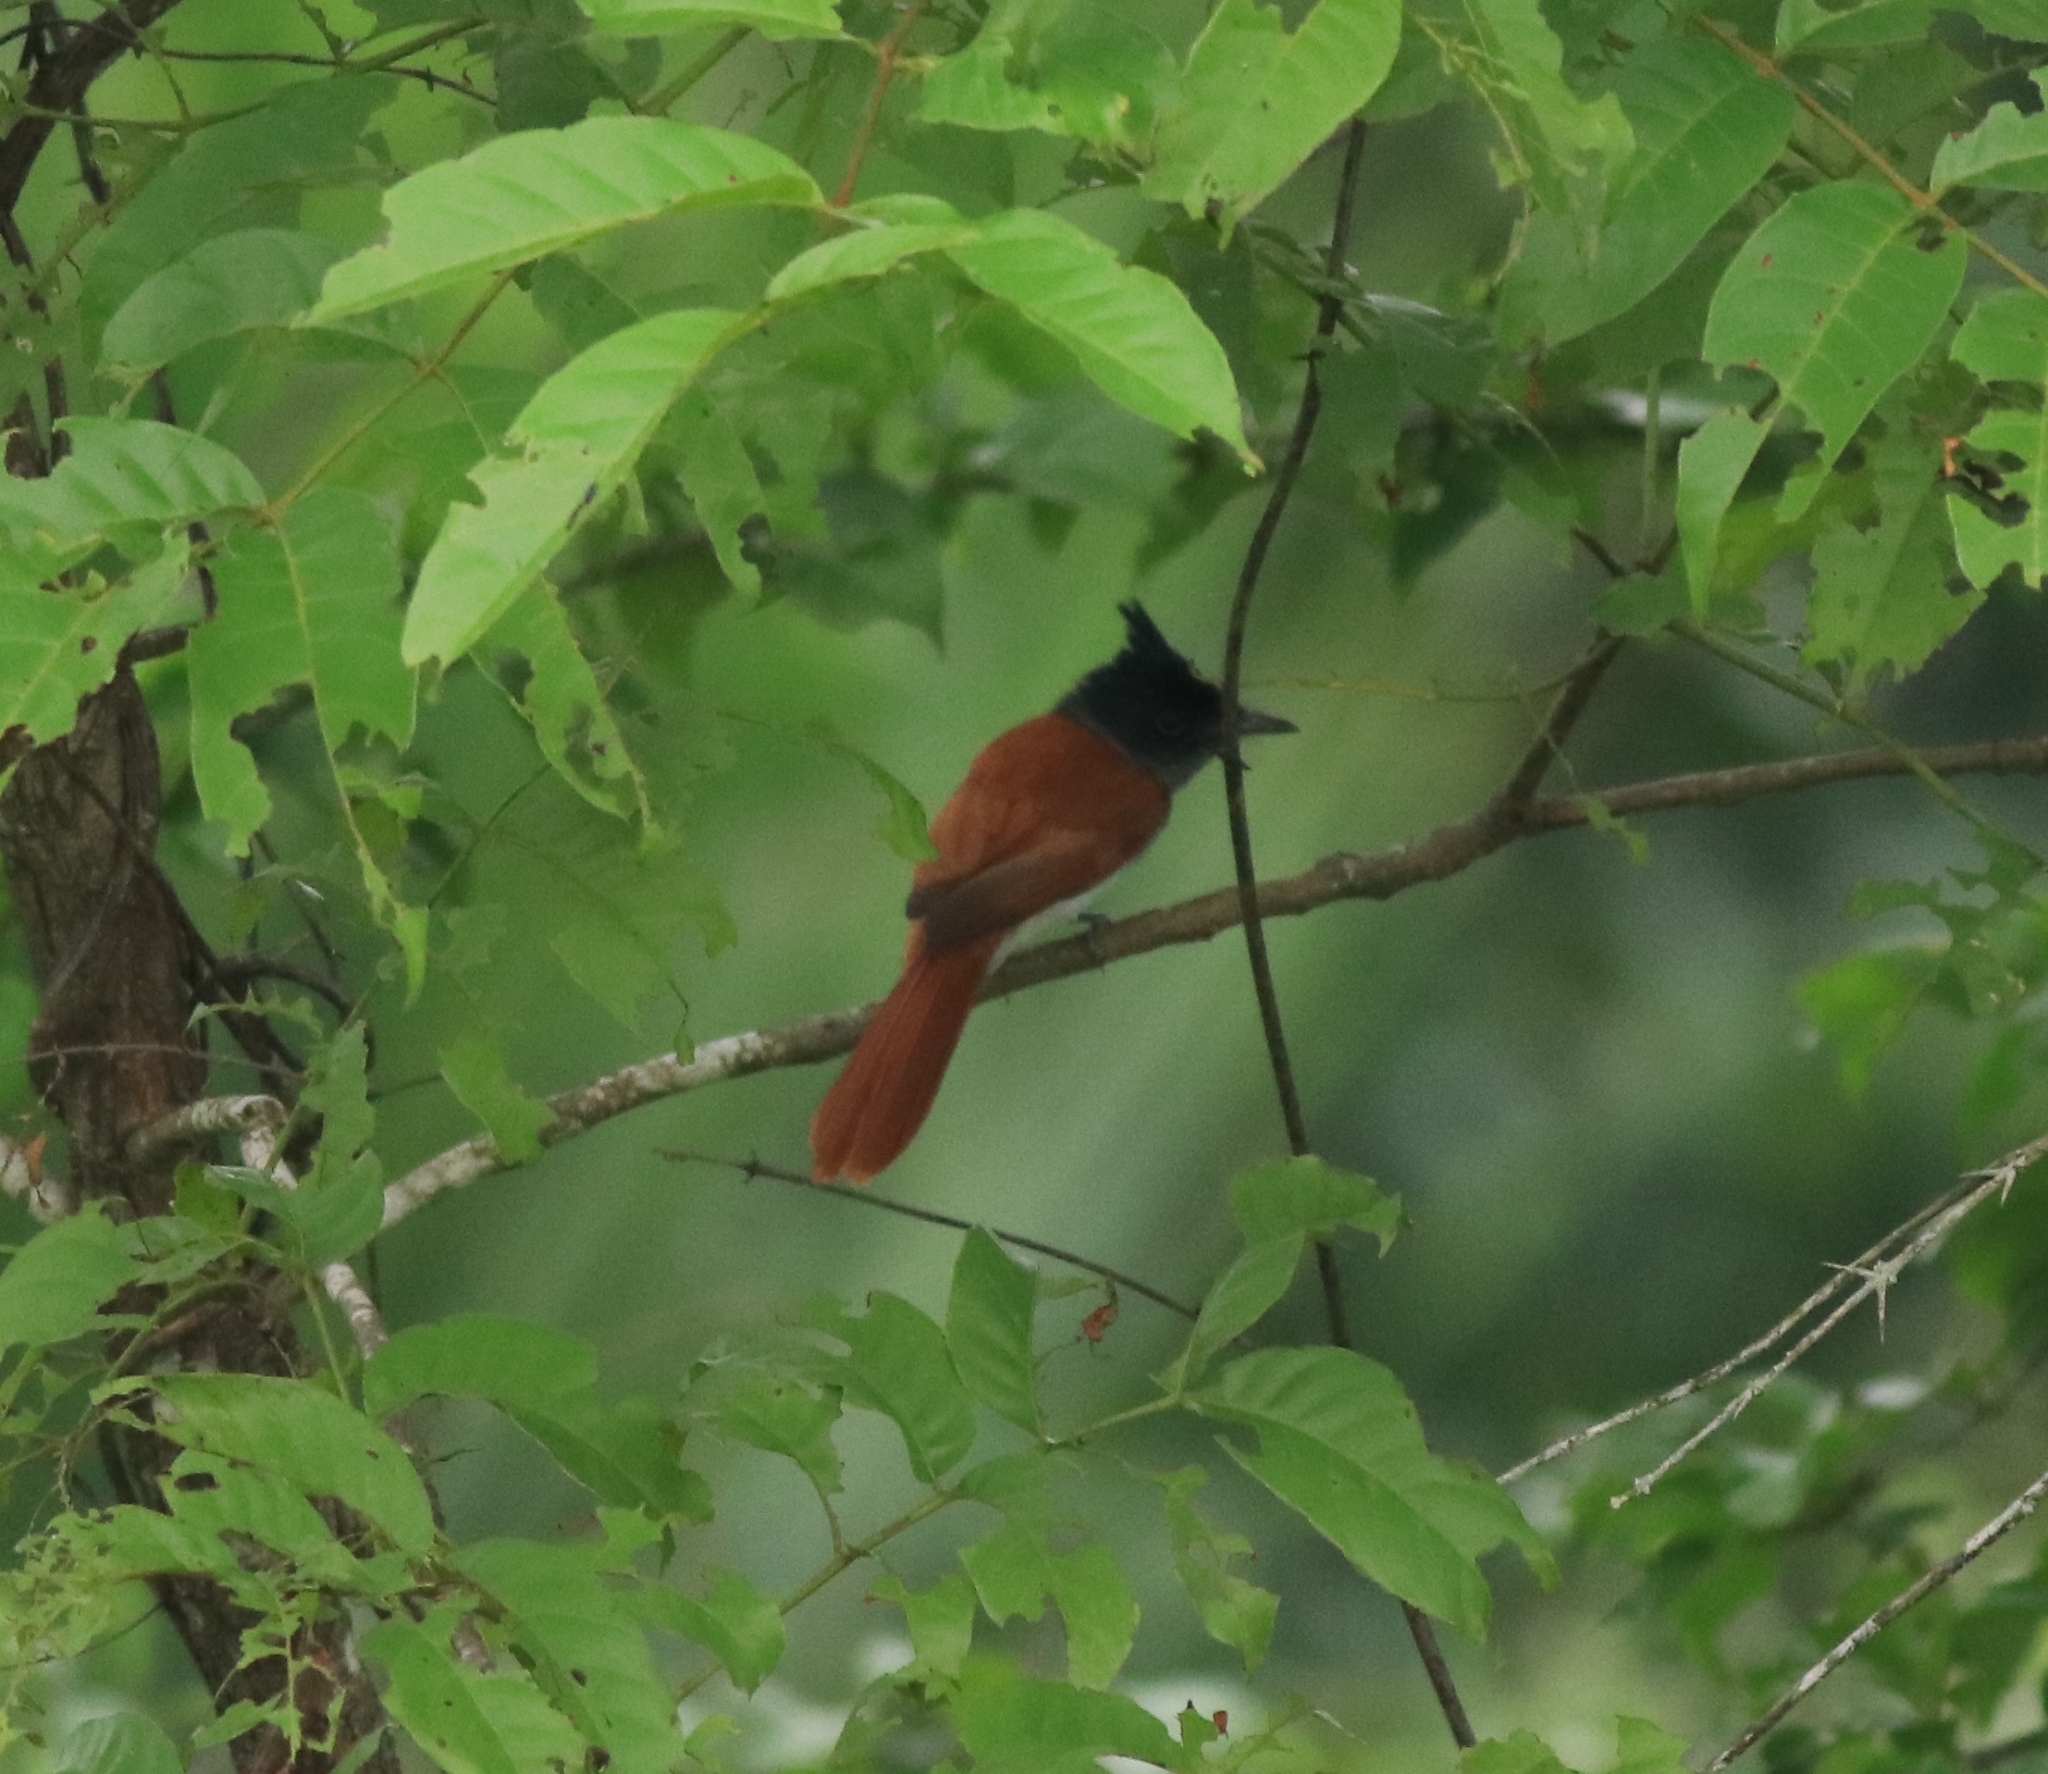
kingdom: Animalia
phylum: Chordata
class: Aves
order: Passeriformes
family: Monarchidae
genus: Terpsiphone
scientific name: Terpsiphone paradisi
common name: Indian paradise flycatcher
